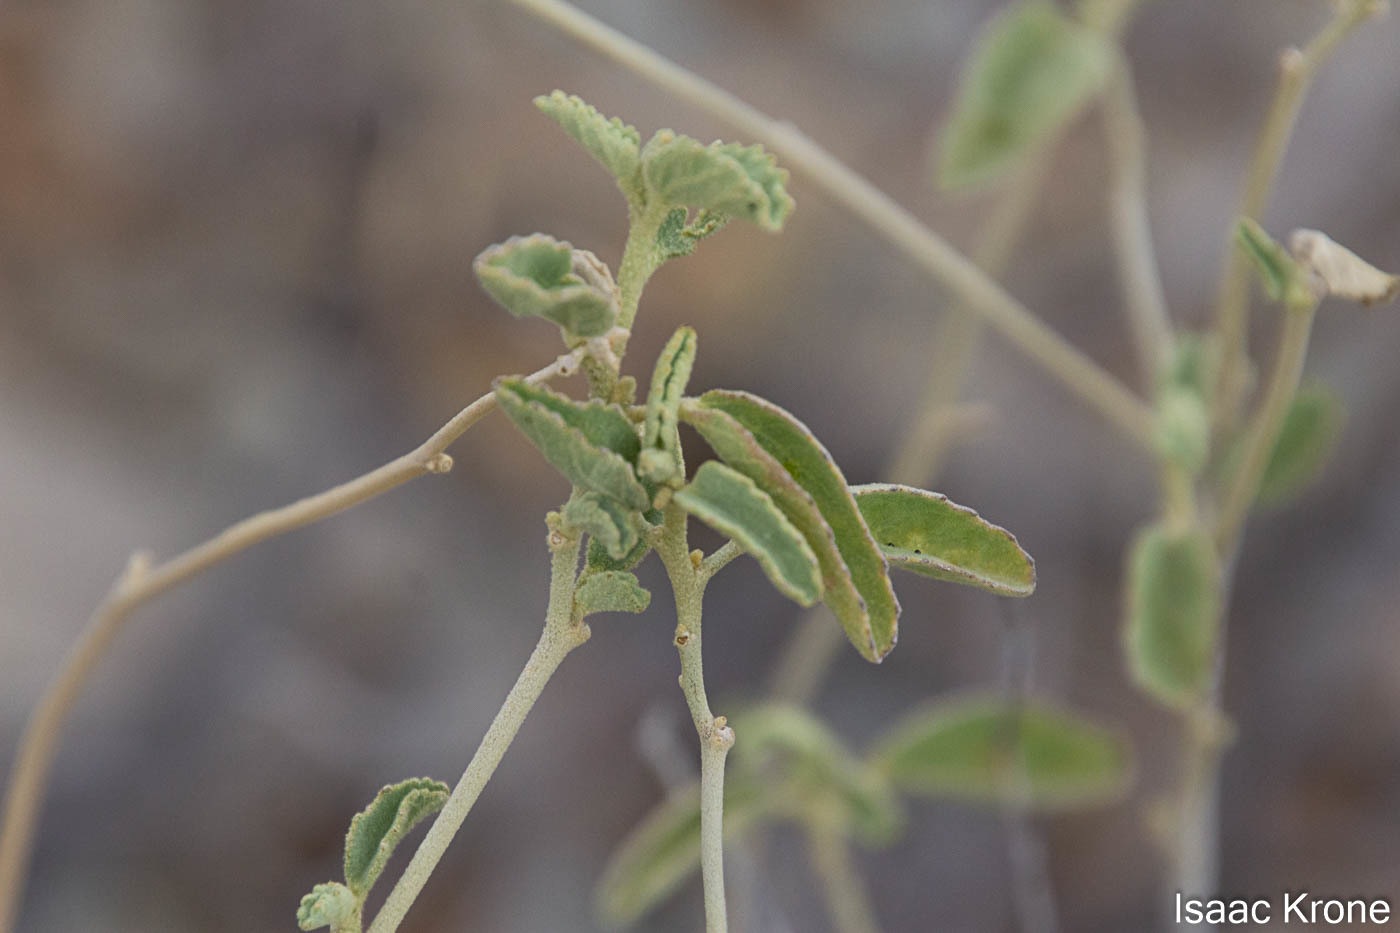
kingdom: Plantae
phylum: Tracheophyta
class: Magnoliopsida
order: Malvales
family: Malvaceae
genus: Hibiscus
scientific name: Hibiscus denudatus
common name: Paleface
